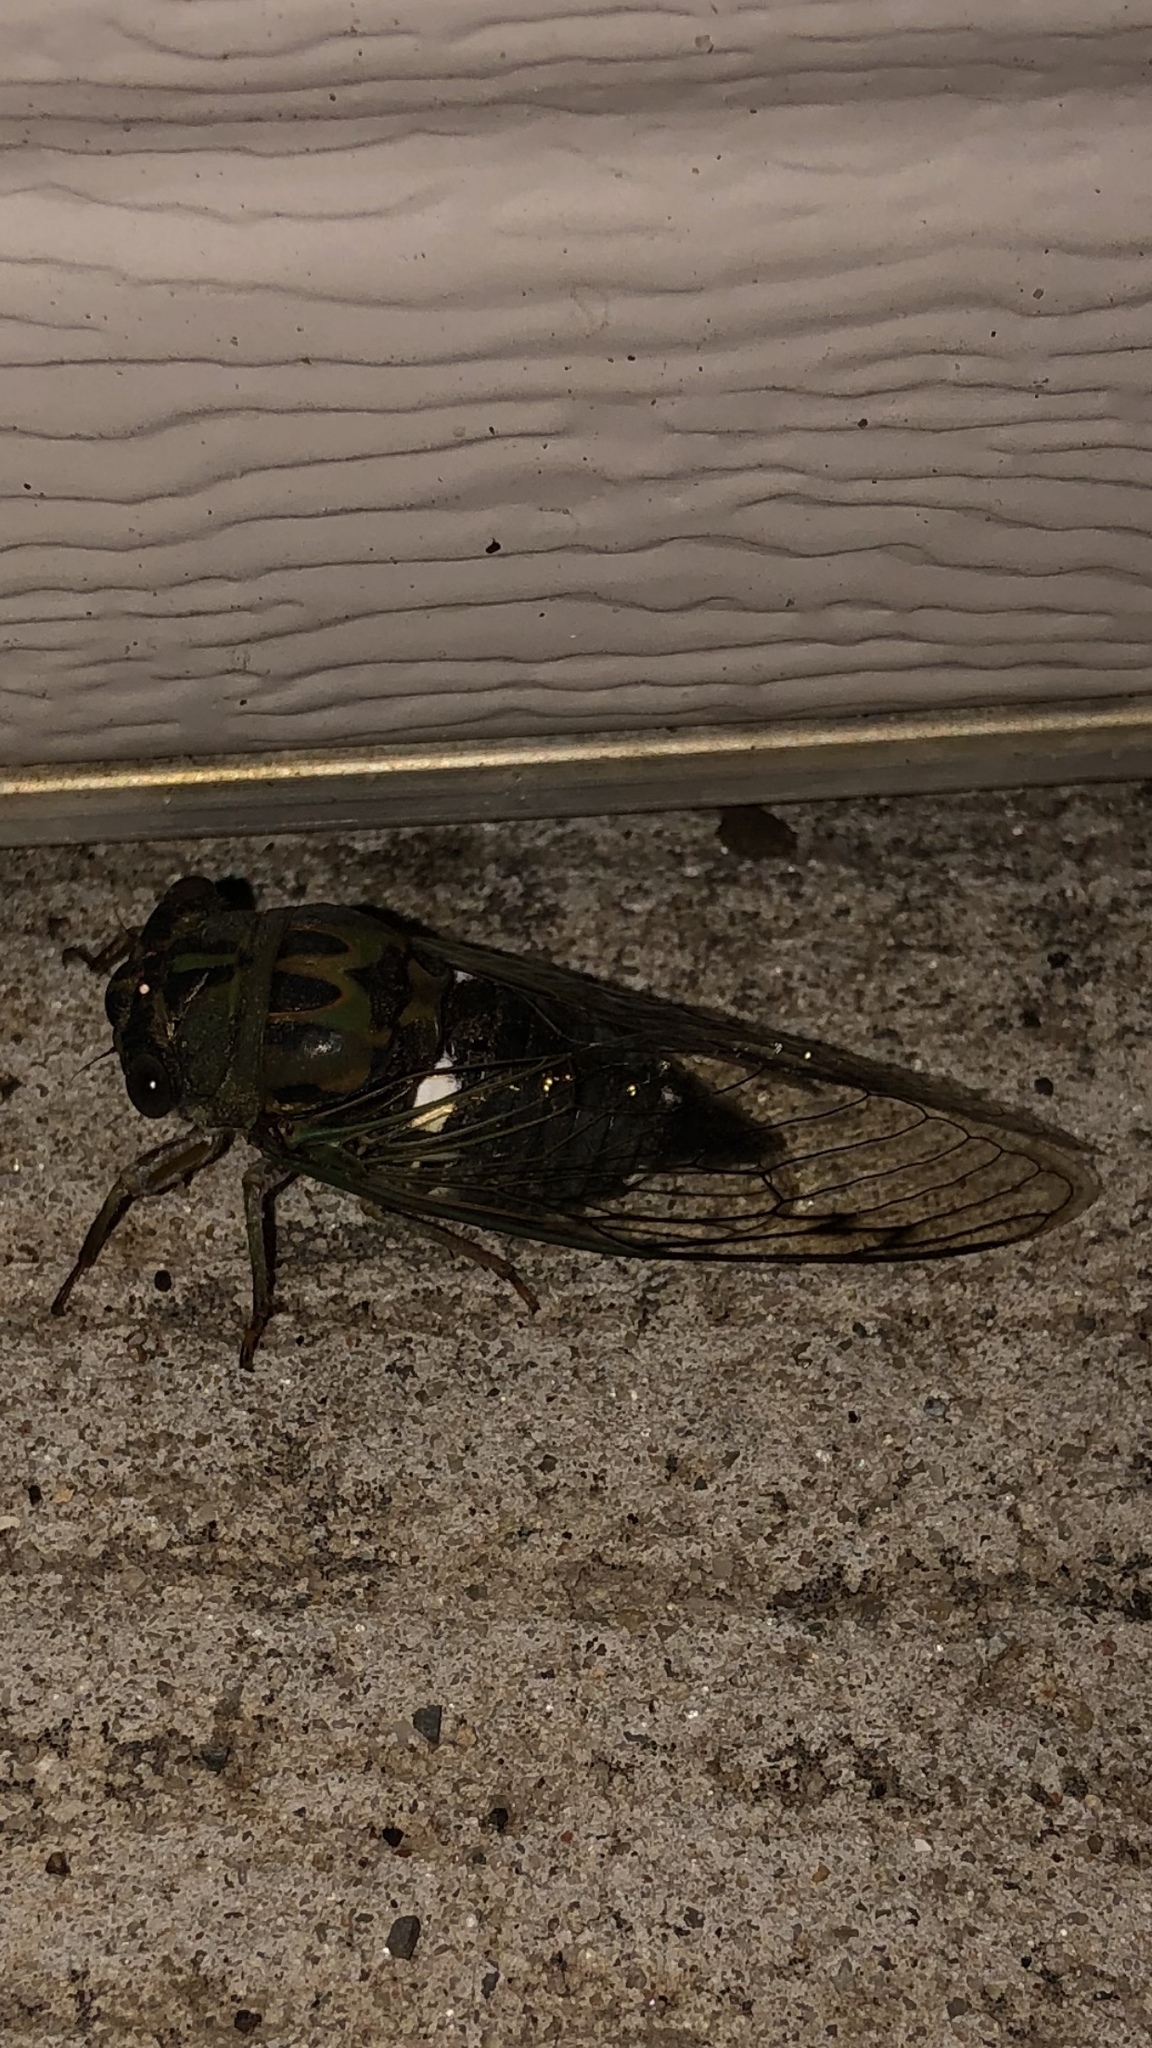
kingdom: Animalia
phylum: Arthropoda
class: Insecta
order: Hemiptera
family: Cicadidae
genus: Neotibicen
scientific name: Neotibicen pruinosus
